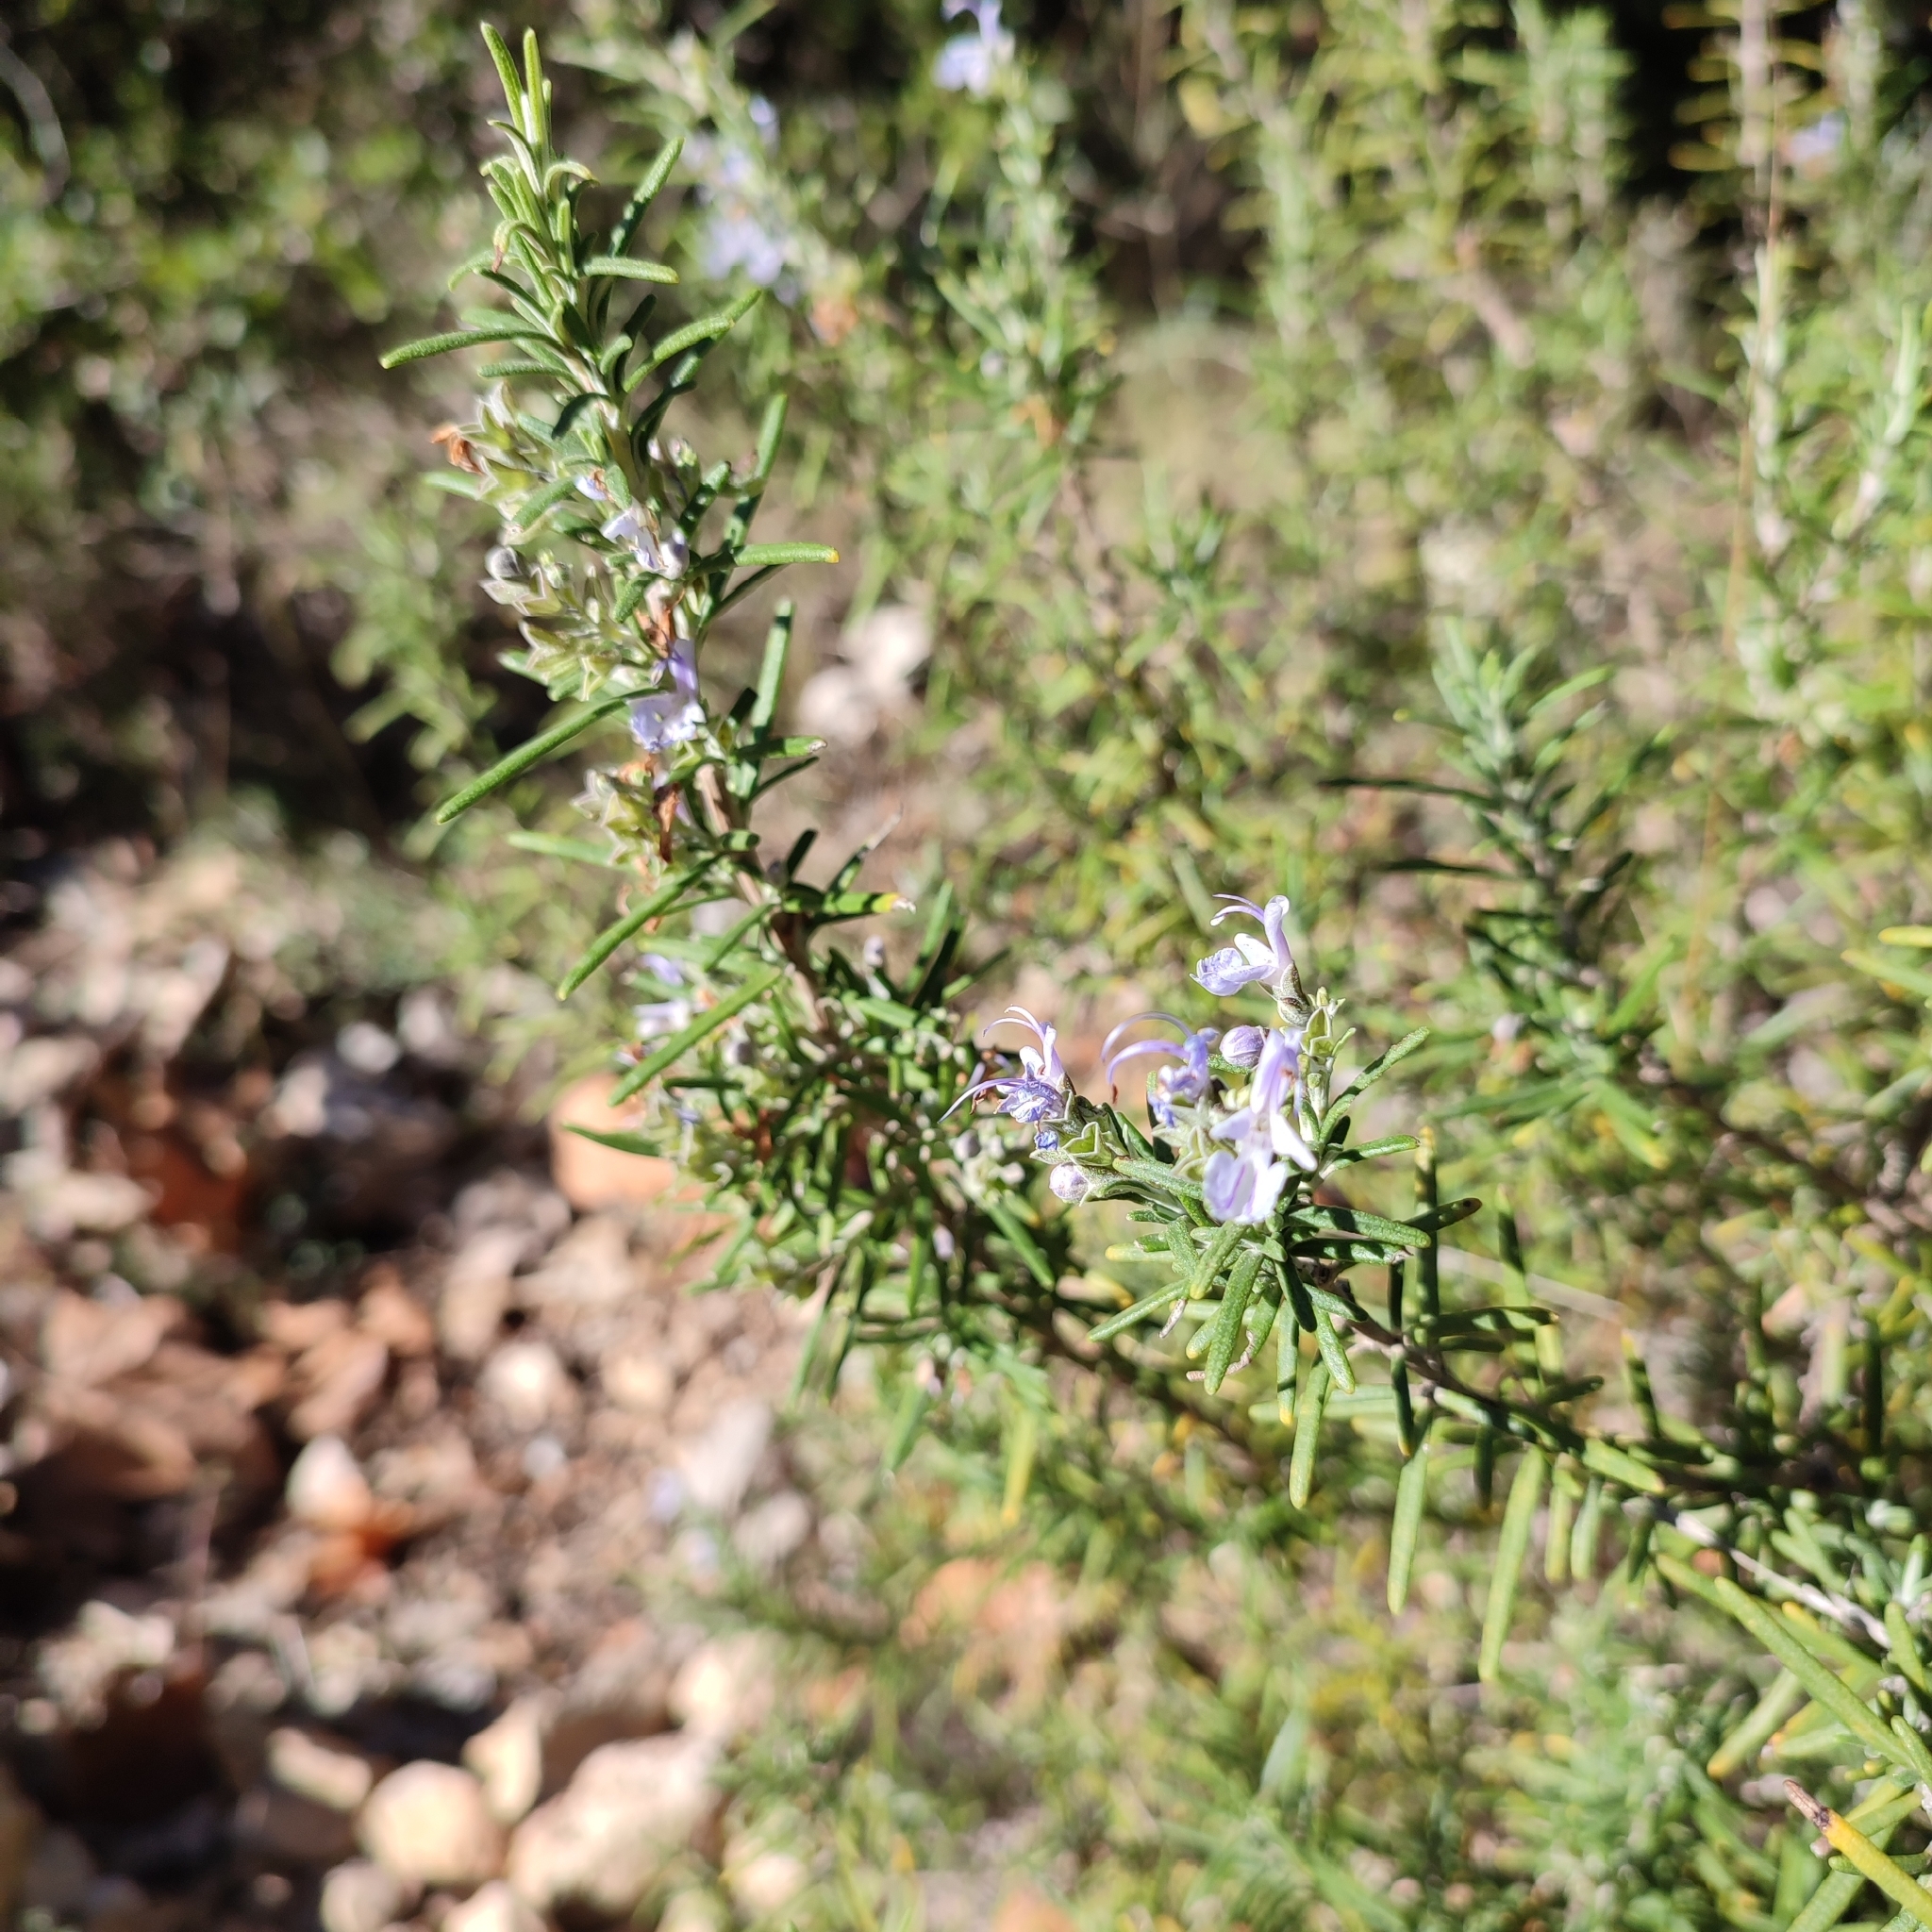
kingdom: Plantae
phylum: Tracheophyta
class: Magnoliopsida
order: Lamiales
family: Lamiaceae
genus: Salvia
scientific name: Salvia rosmarinus
